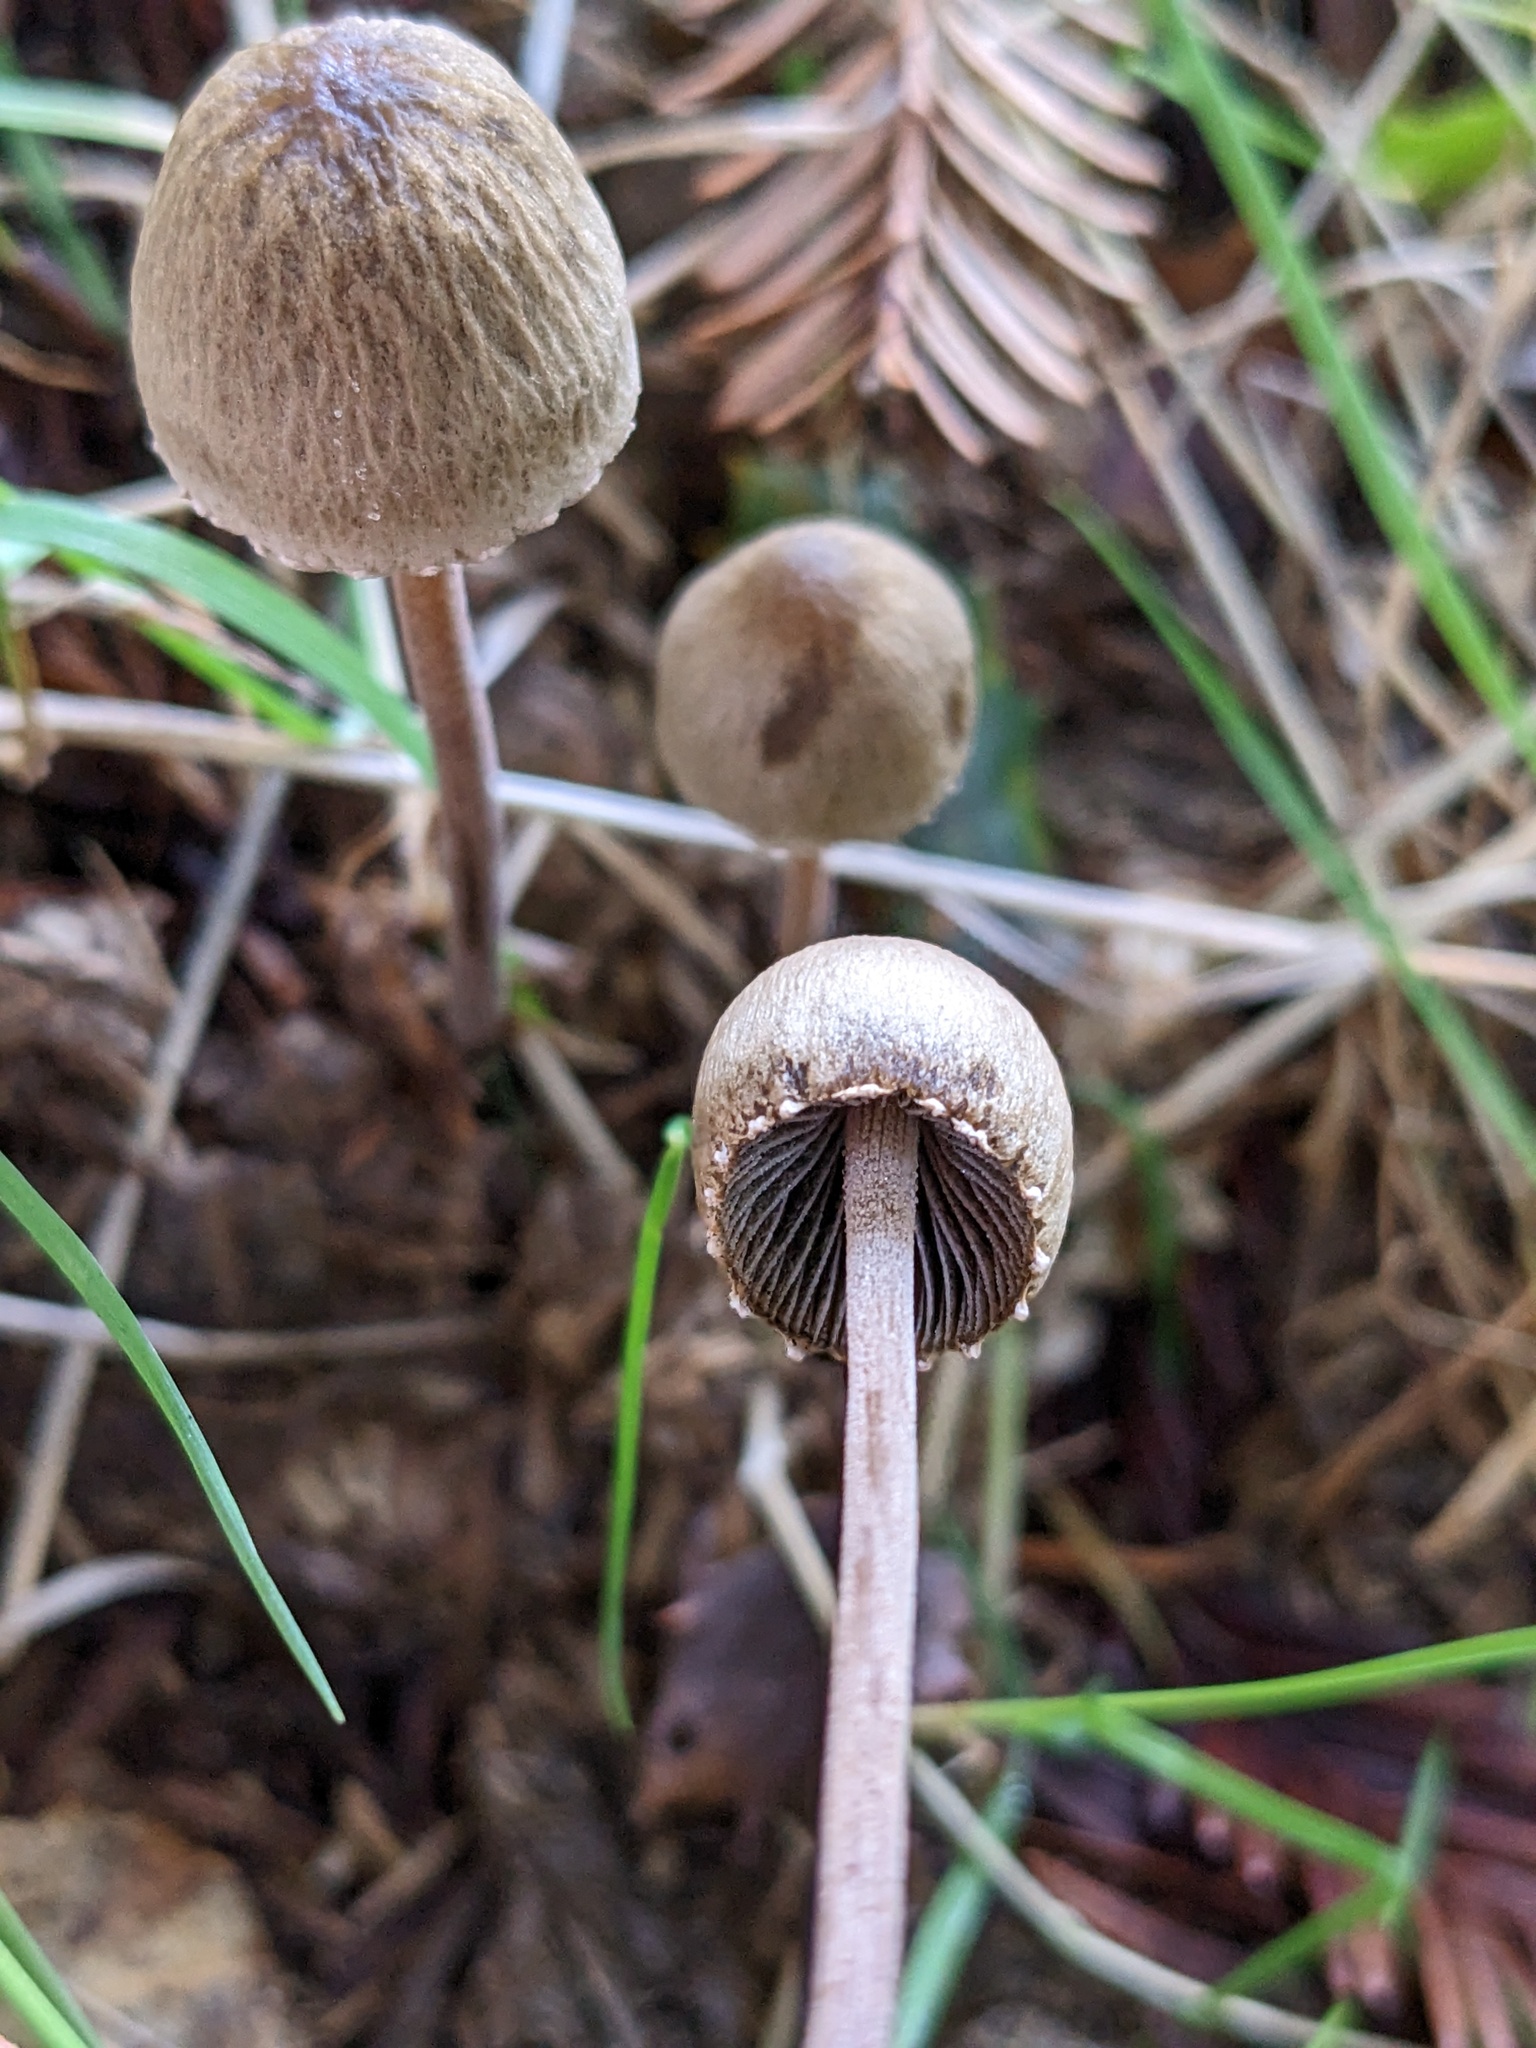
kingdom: Fungi
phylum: Basidiomycota
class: Agaricomycetes
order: Agaricales
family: Bolbitiaceae
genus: Panaeolus
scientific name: Panaeolus papilionaceus
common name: Petticoat mottlegill
